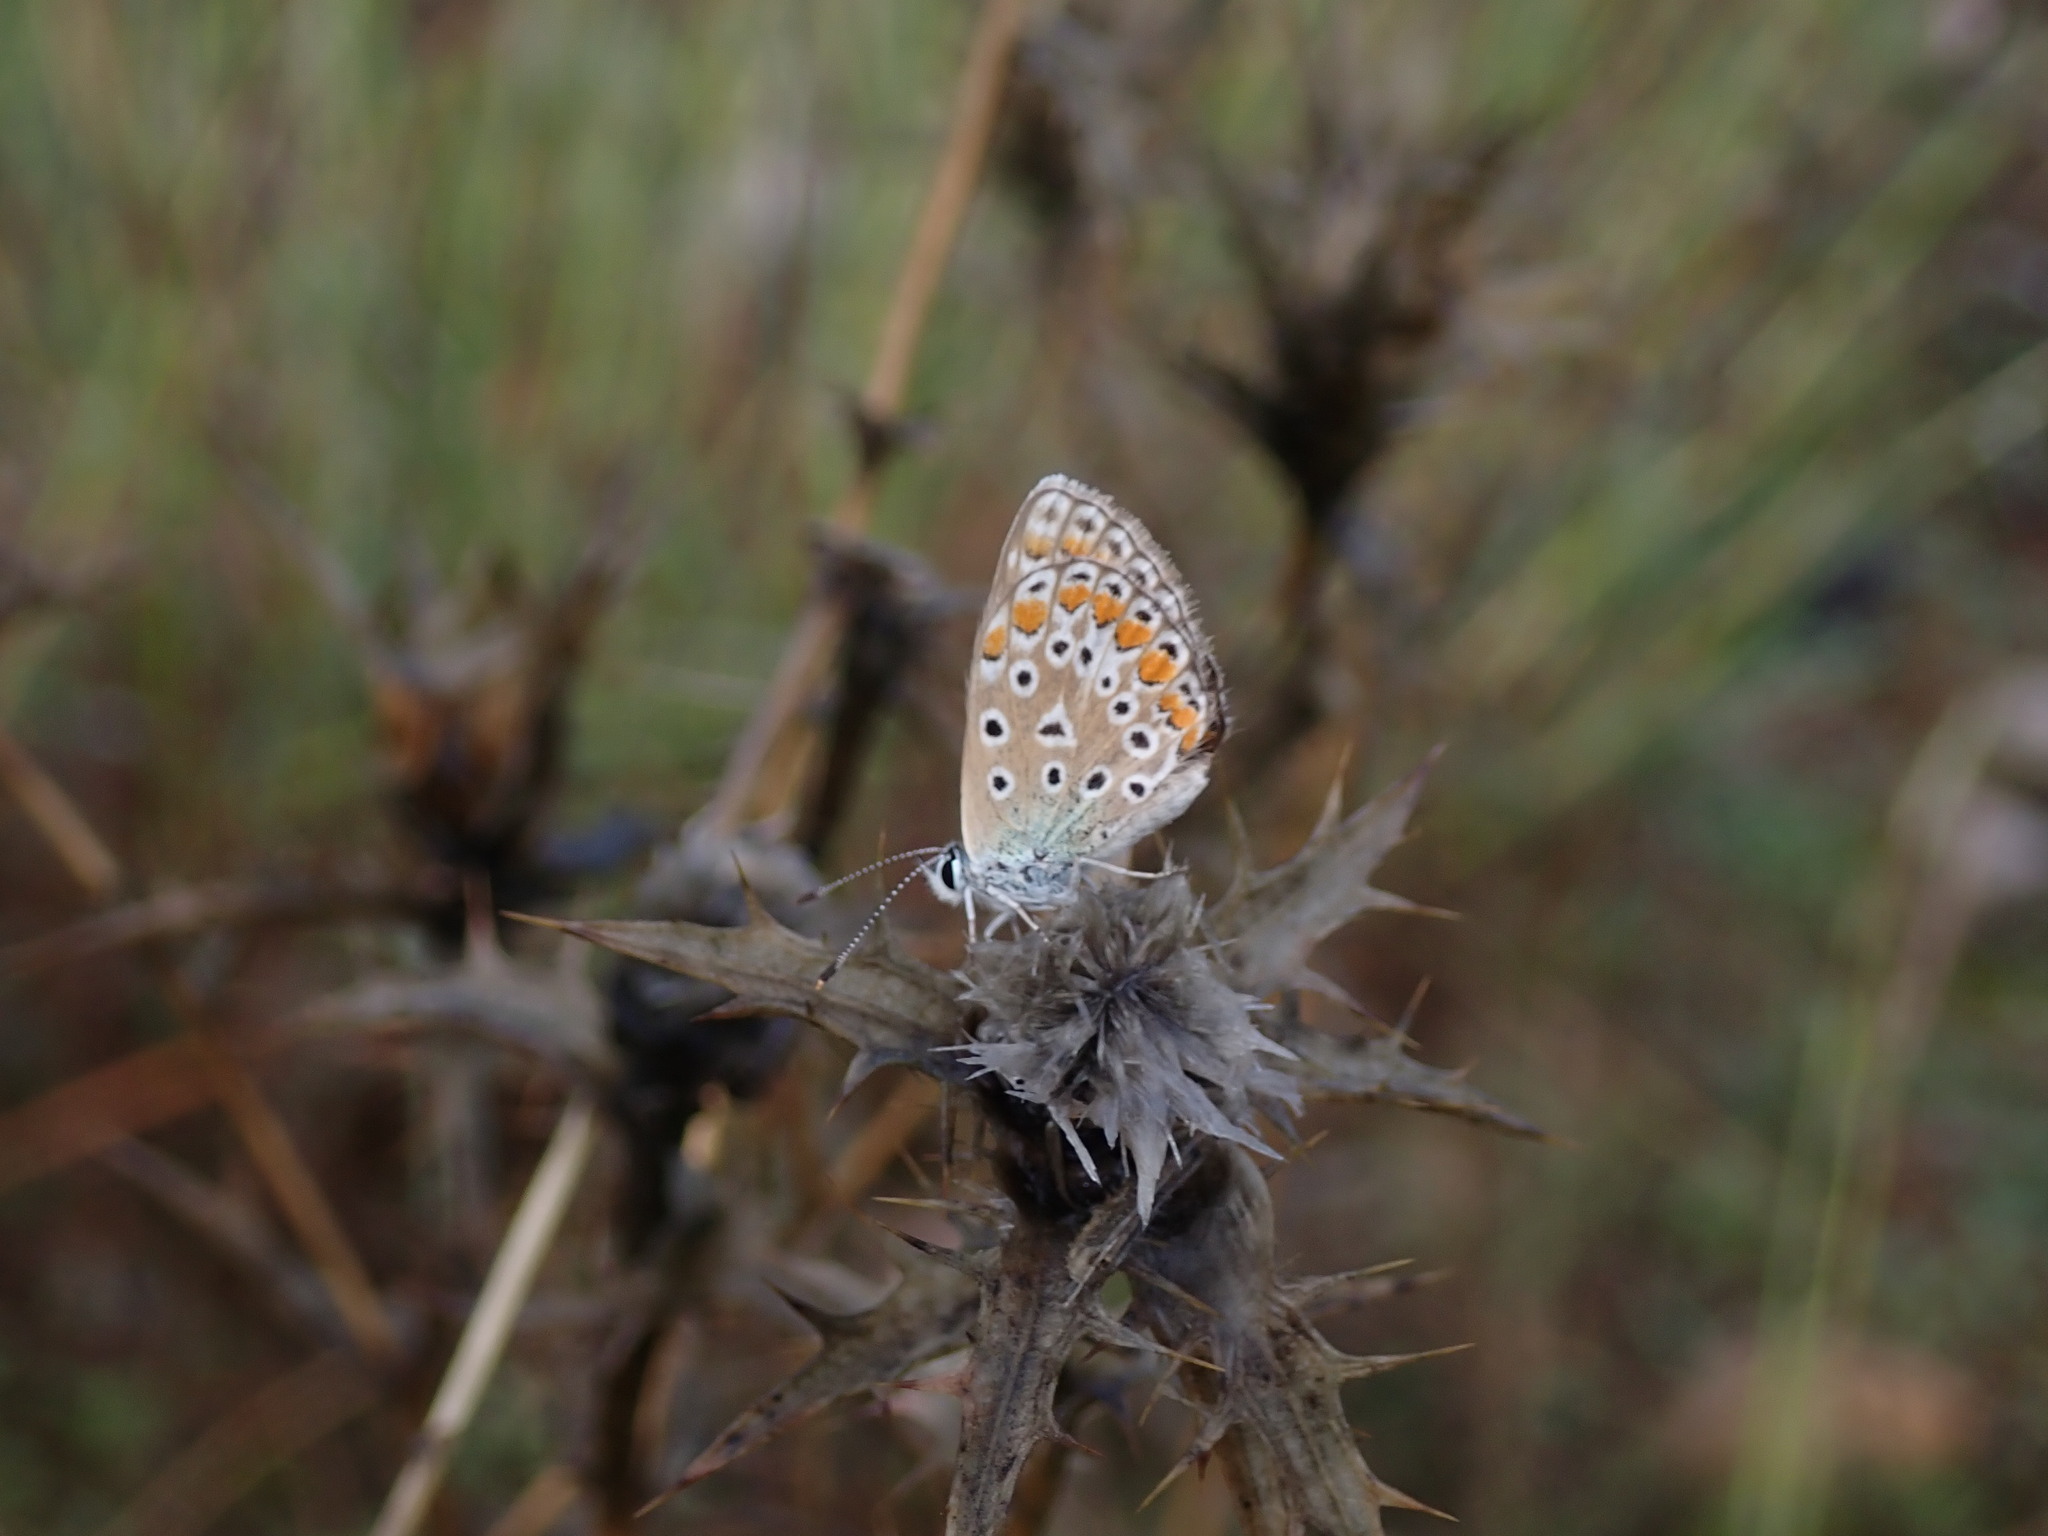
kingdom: Animalia
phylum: Arthropoda
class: Insecta
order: Lepidoptera
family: Lycaenidae
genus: Polyommatus
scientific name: Polyommatus icarus
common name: Common blue
